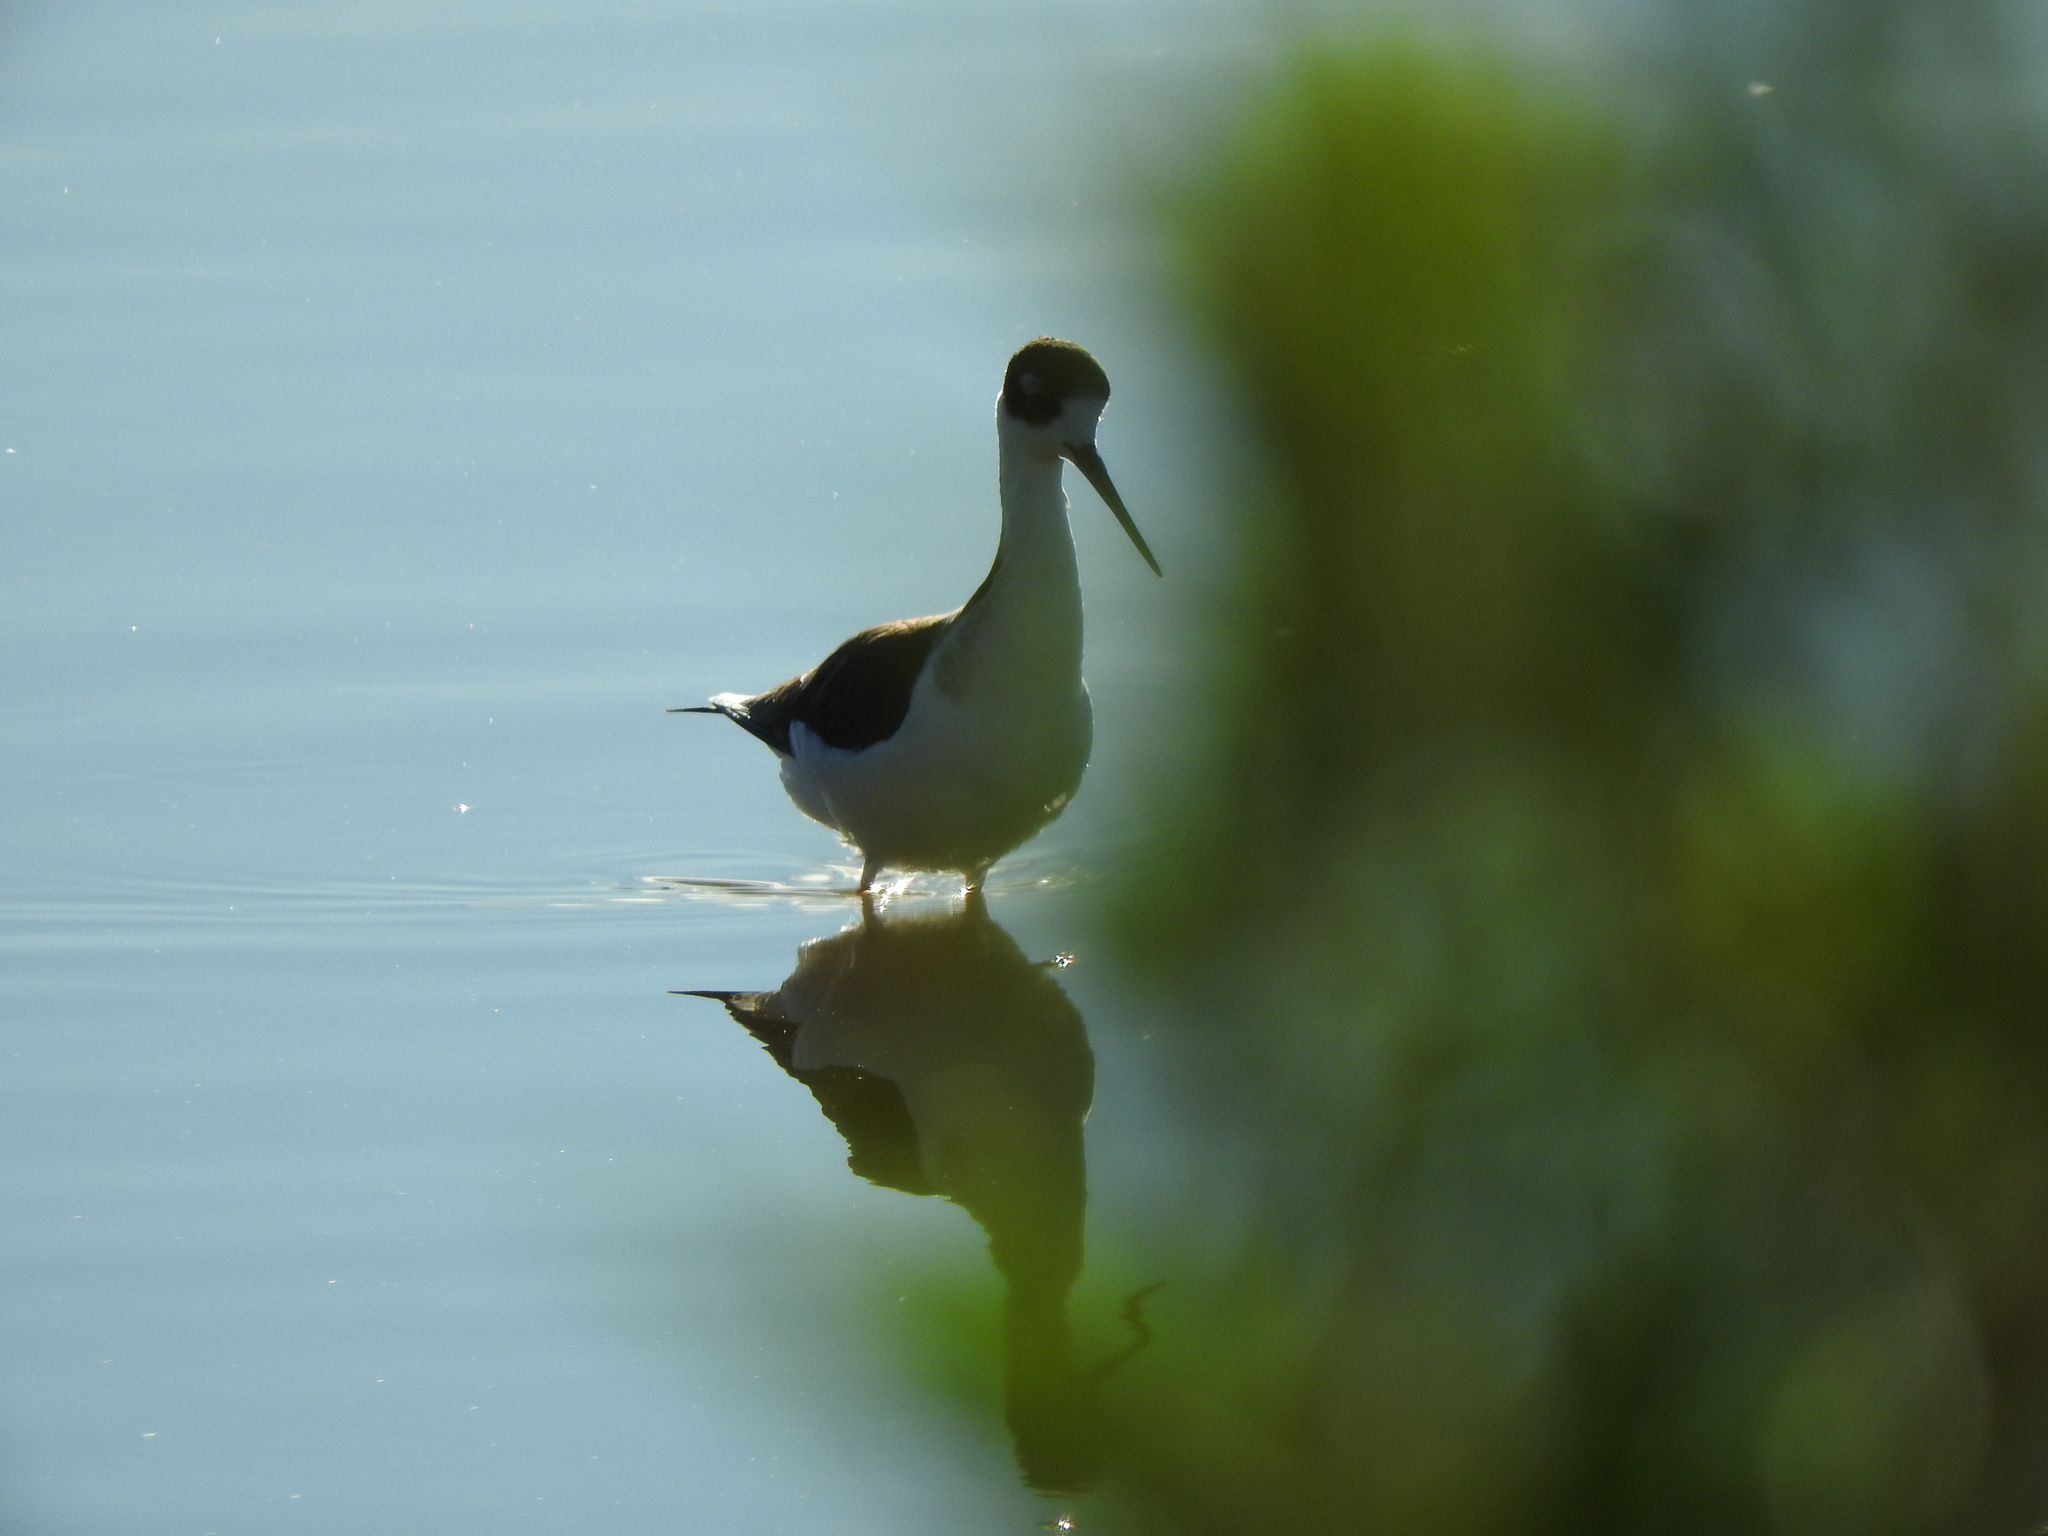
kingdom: Animalia
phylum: Chordata
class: Aves
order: Charadriiformes
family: Recurvirostridae
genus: Himantopus
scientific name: Himantopus mexicanus
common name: Black-necked stilt
